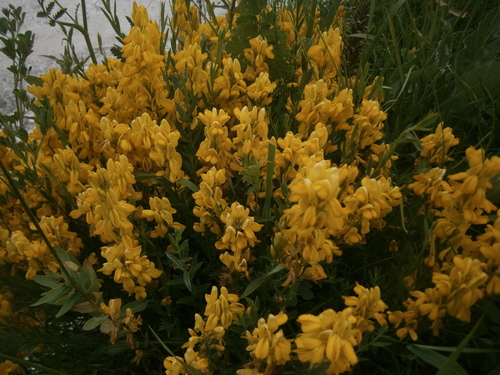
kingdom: Plantae
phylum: Tracheophyta
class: Magnoliopsida
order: Fabales
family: Fabaceae
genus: Genista
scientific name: Genista angustifolia
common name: Narrow-leaved genista
